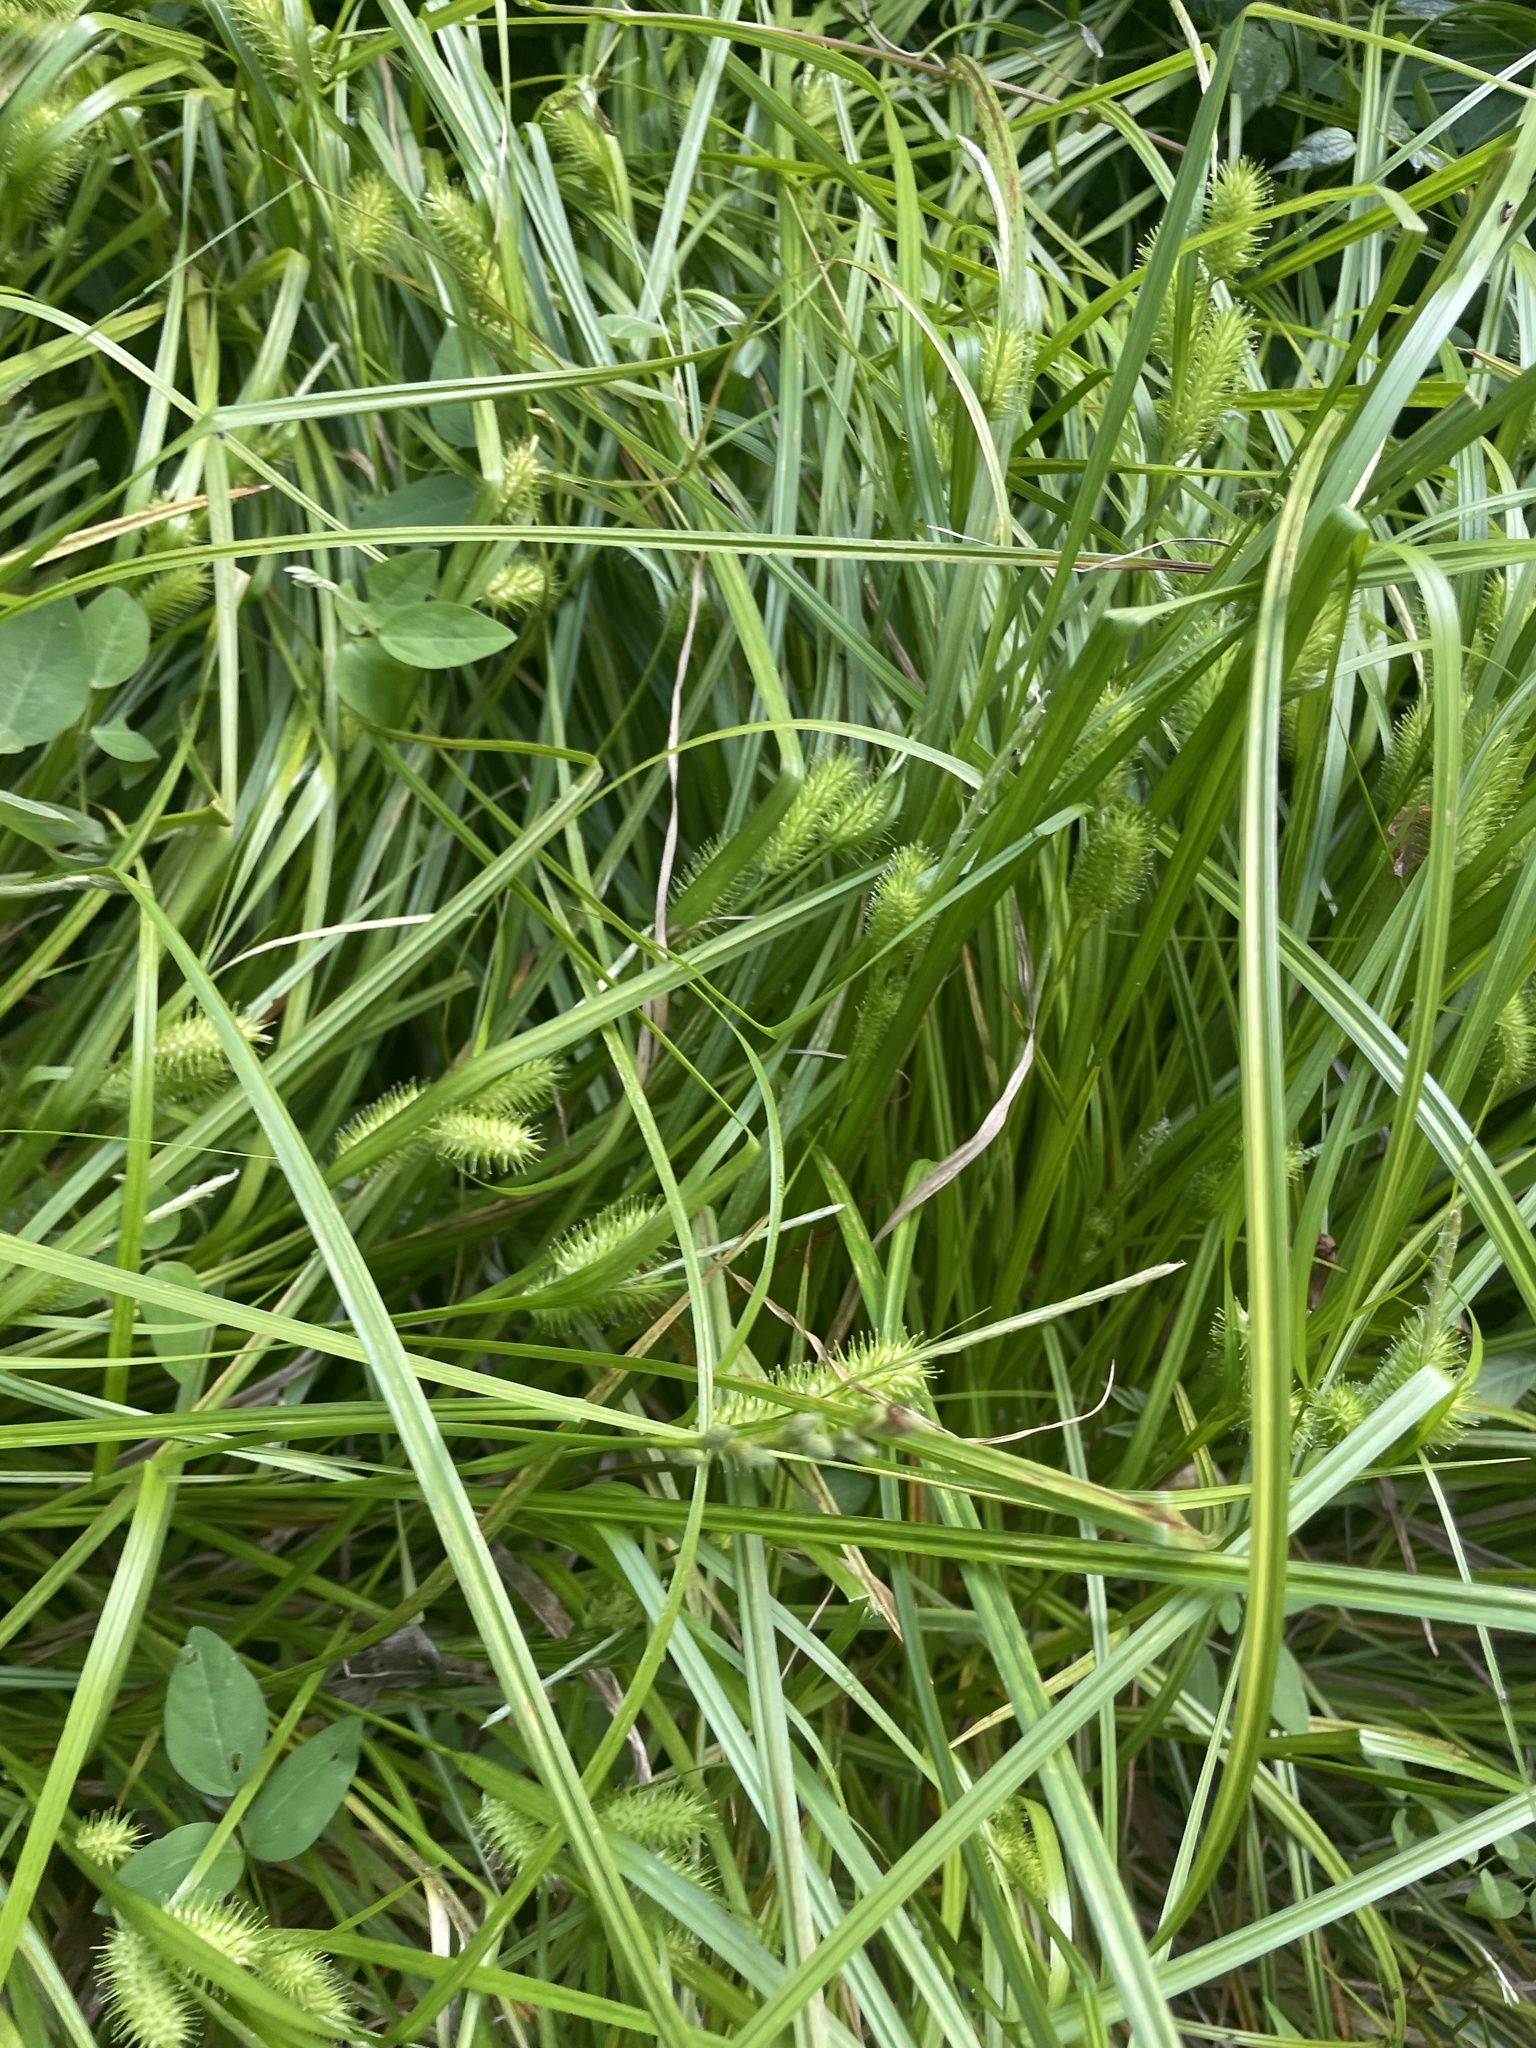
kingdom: Plantae
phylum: Tracheophyta
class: Liliopsida
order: Poales
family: Cyperaceae
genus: Carex
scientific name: Carex lurida
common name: Sallow sedge
